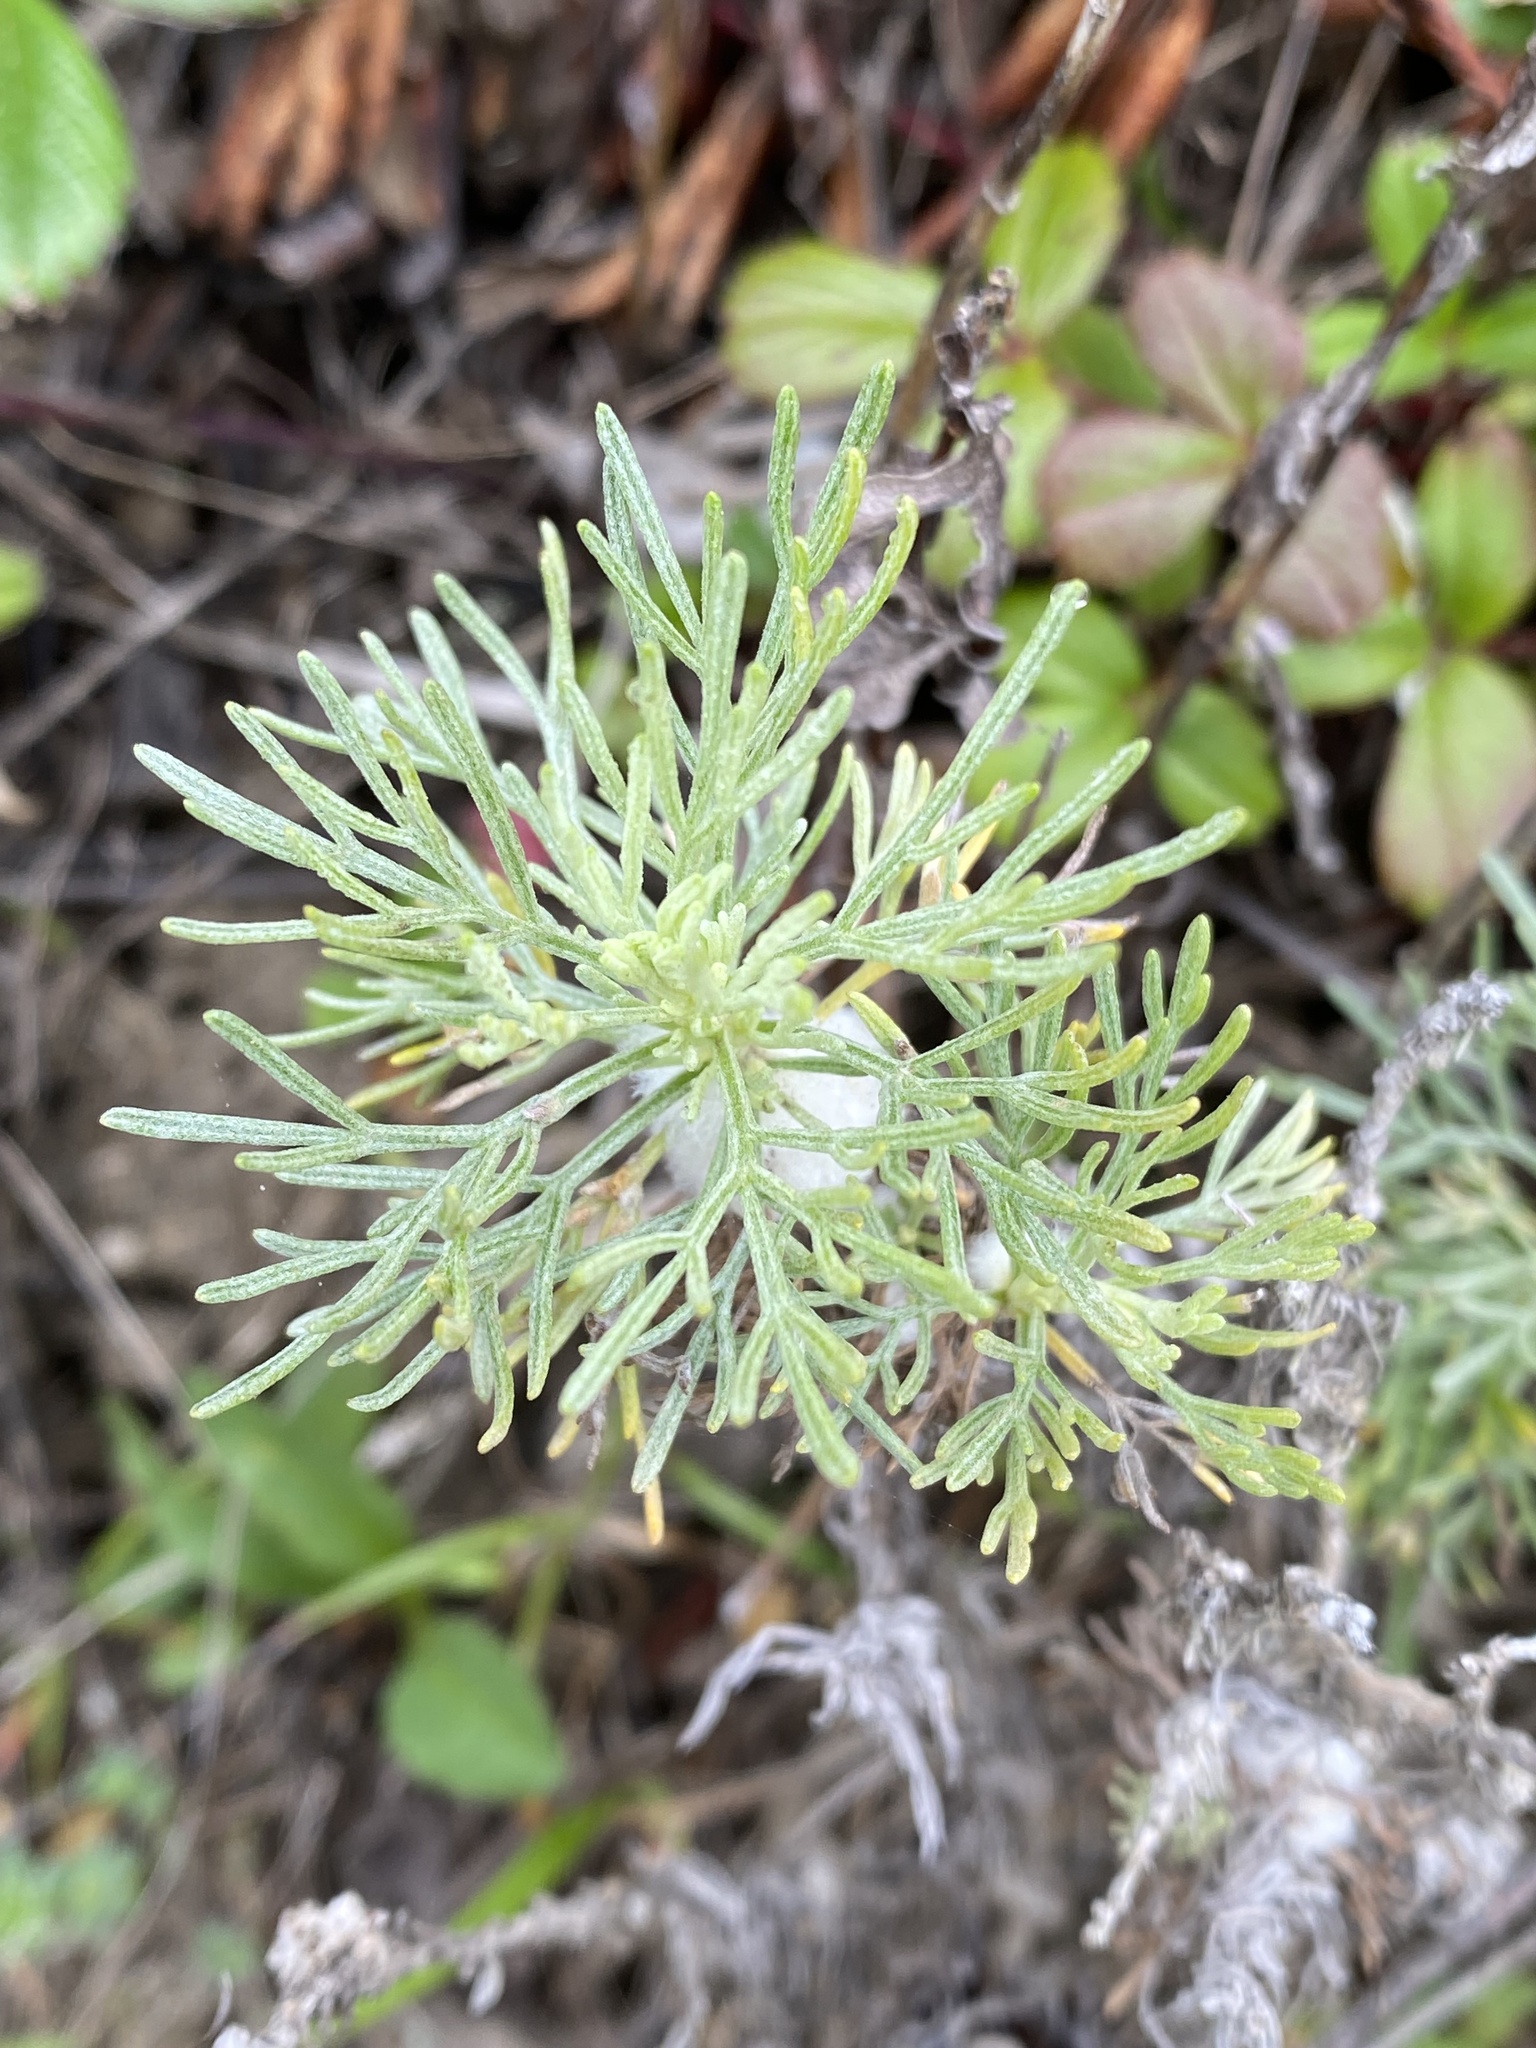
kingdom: Plantae
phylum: Tracheophyta
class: Magnoliopsida
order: Asterales
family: Asteraceae
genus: Artemisia
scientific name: Artemisia californica
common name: California sagebrush
